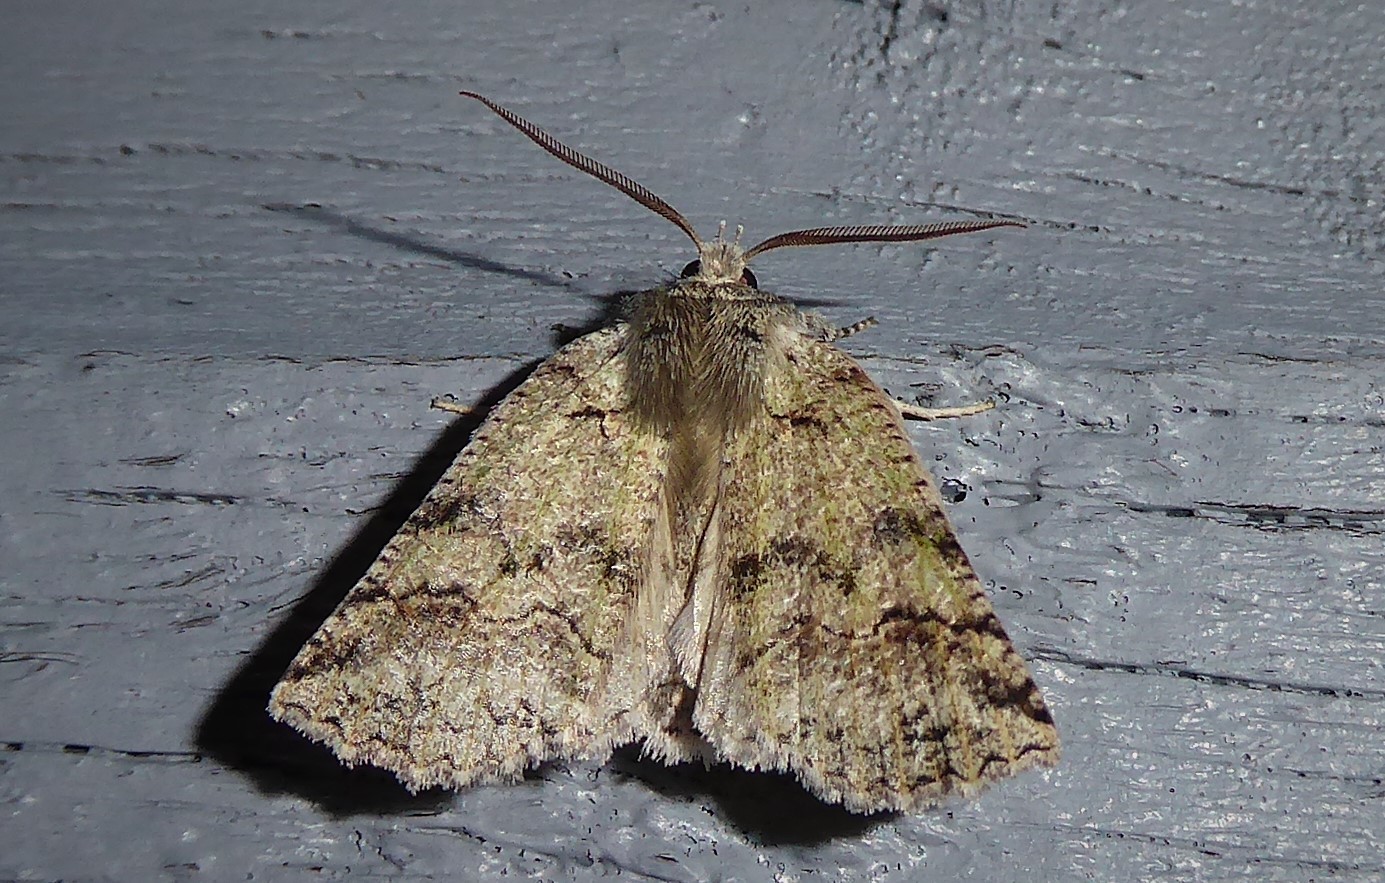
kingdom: Animalia
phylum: Arthropoda
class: Insecta
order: Lepidoptera
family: Geometridae
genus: Declana
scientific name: Declana floccosa
